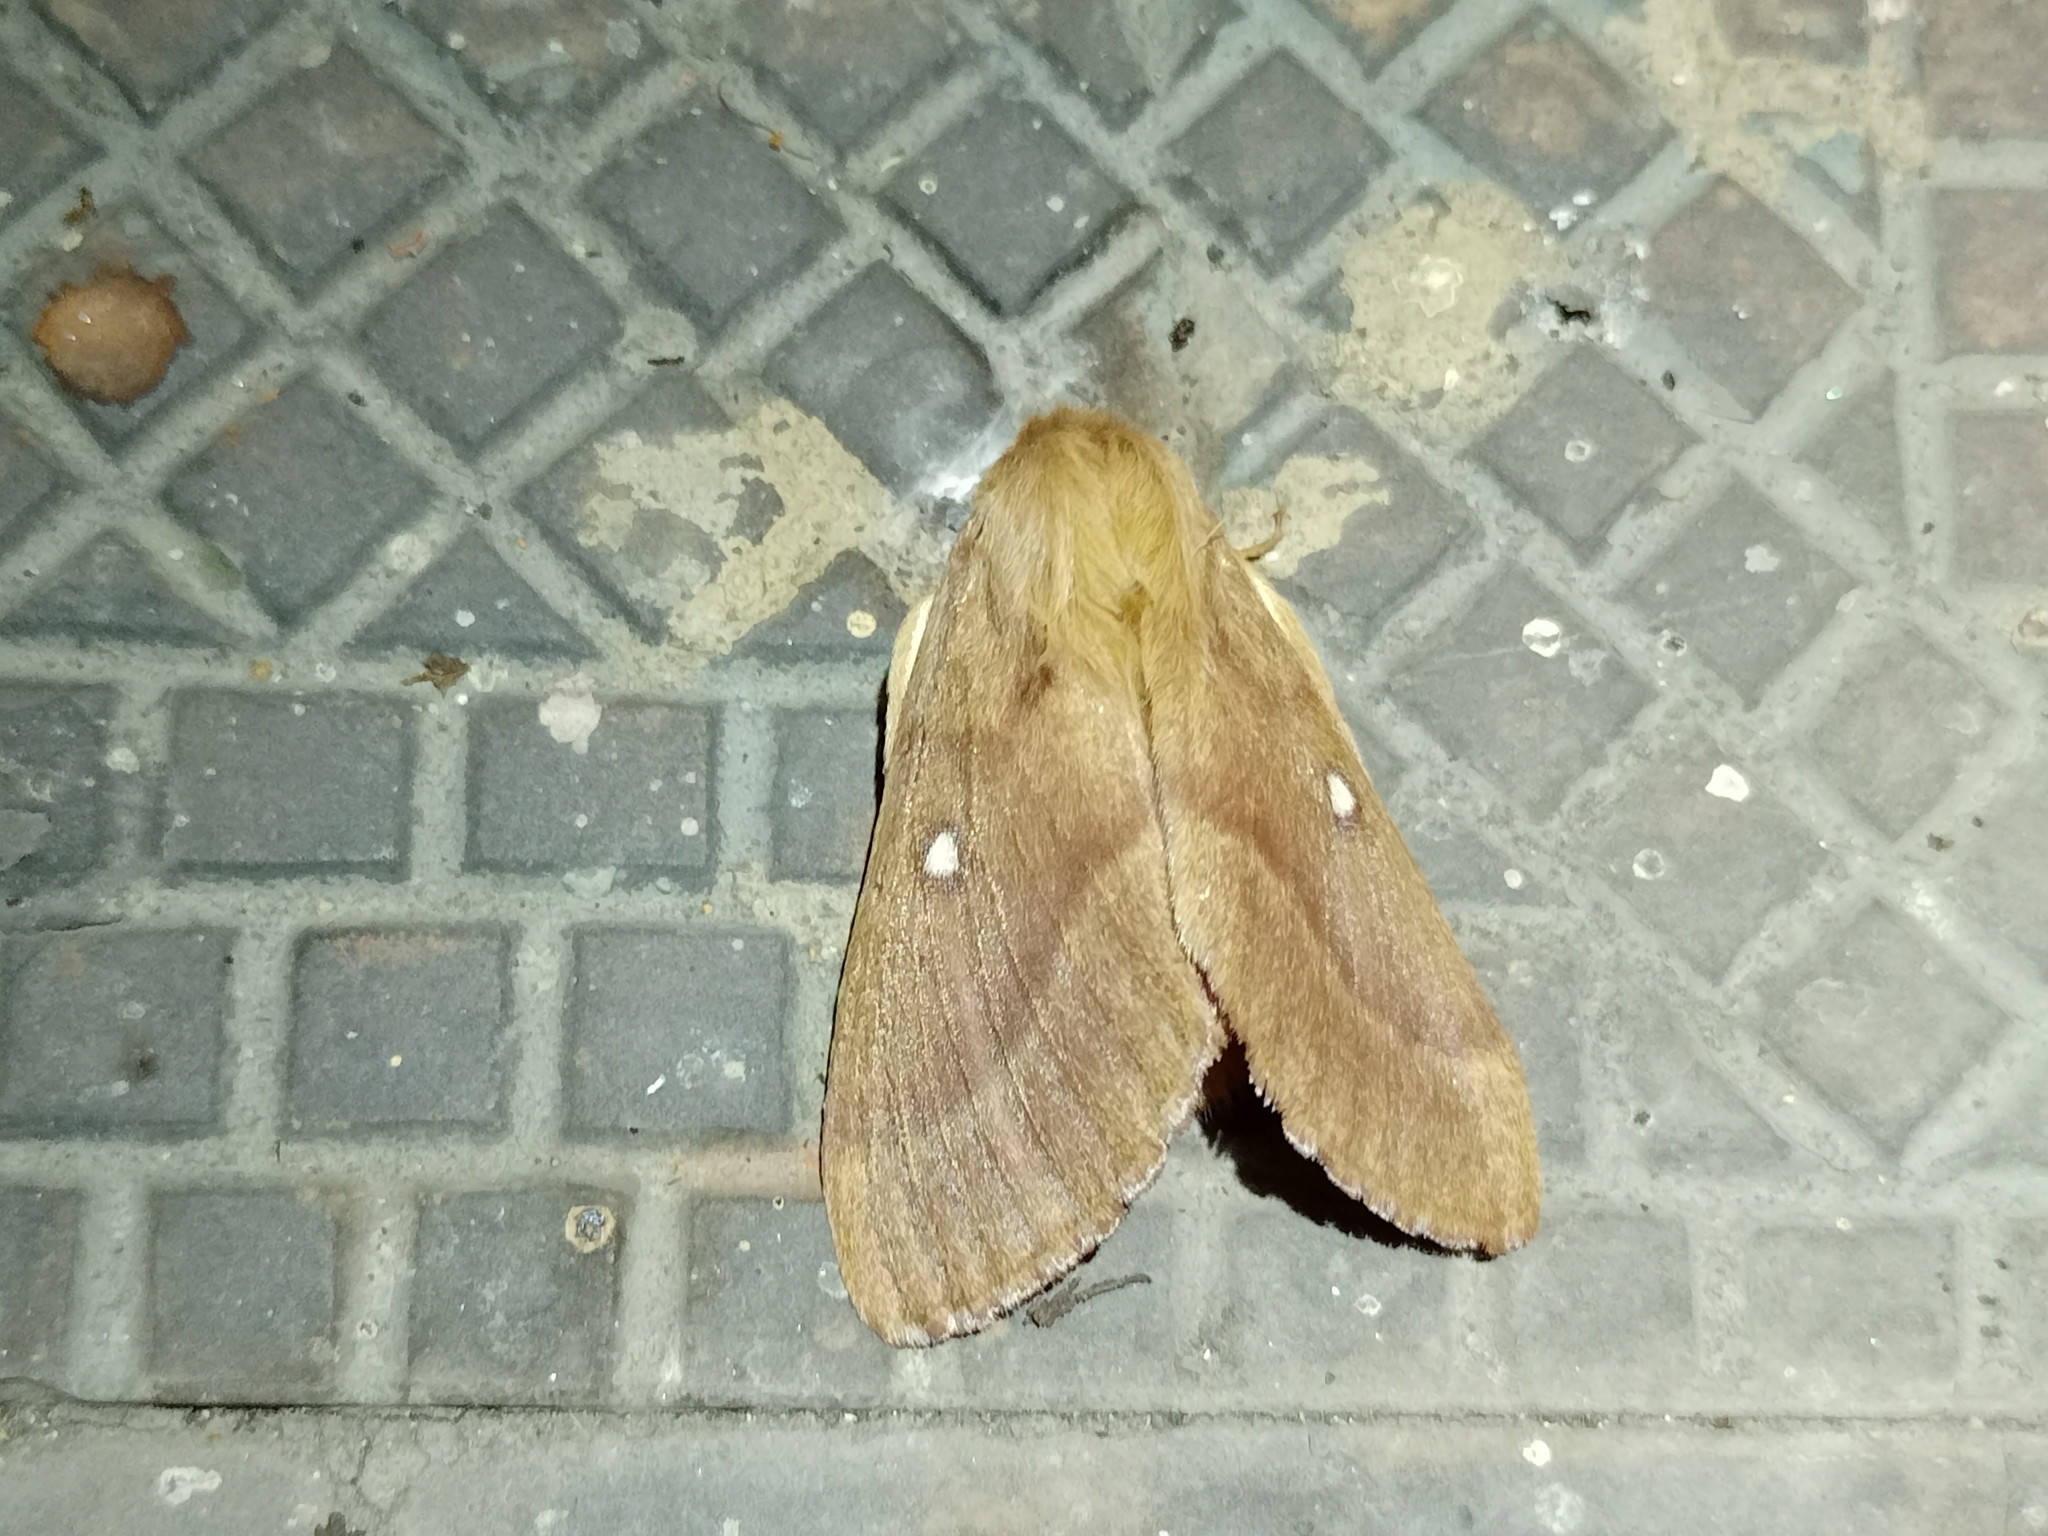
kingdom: Animalia
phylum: Arthropoda
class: Insecta
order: Lepidoptera
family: Lasiocampidae
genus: Lasiocampa
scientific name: Lasiocampa trifolii
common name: Grass eggar
